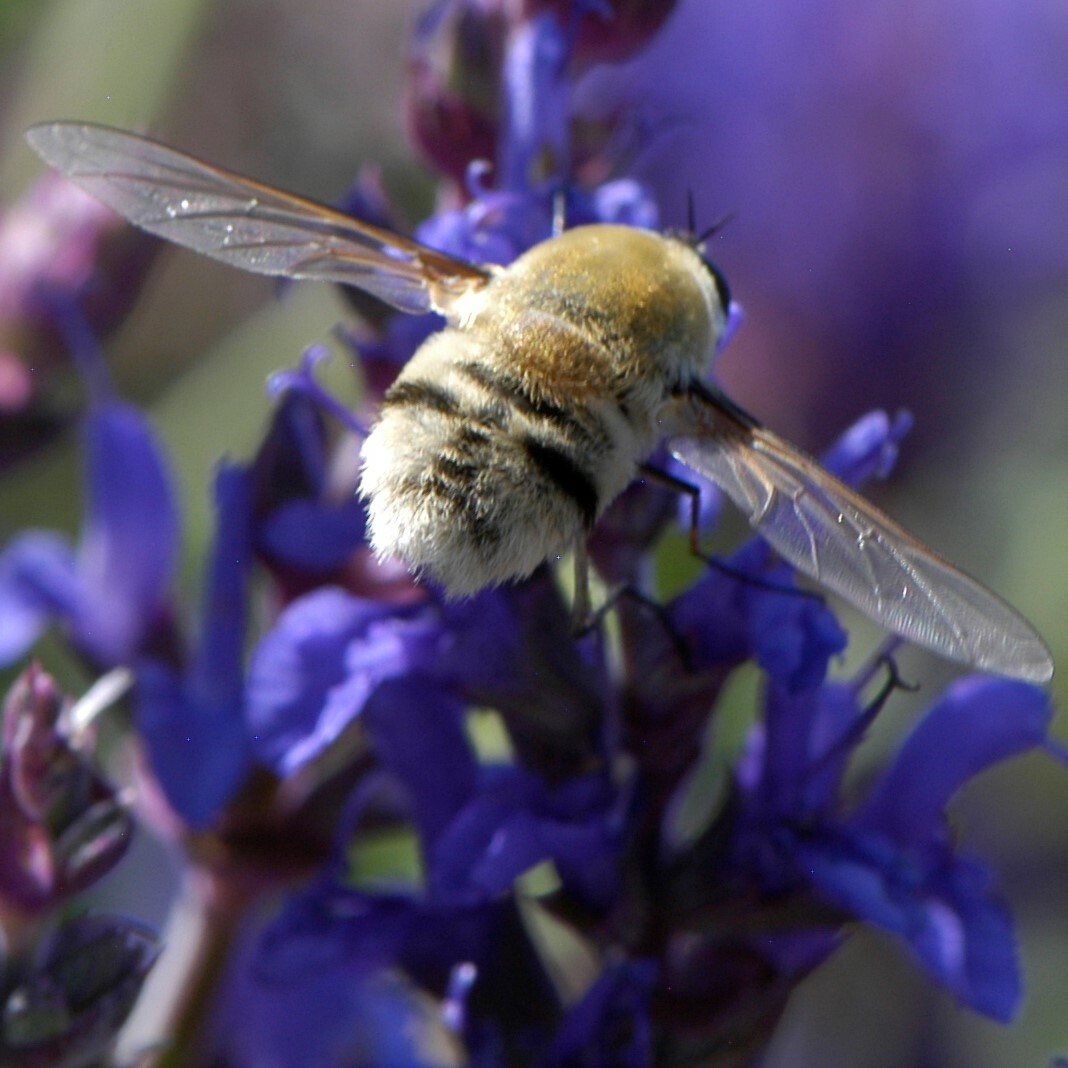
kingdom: Animalia
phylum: Arthropoda
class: Insecta
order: Diptera
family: Bombyliidae
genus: Heterostylum
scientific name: Heterostylum robustum
